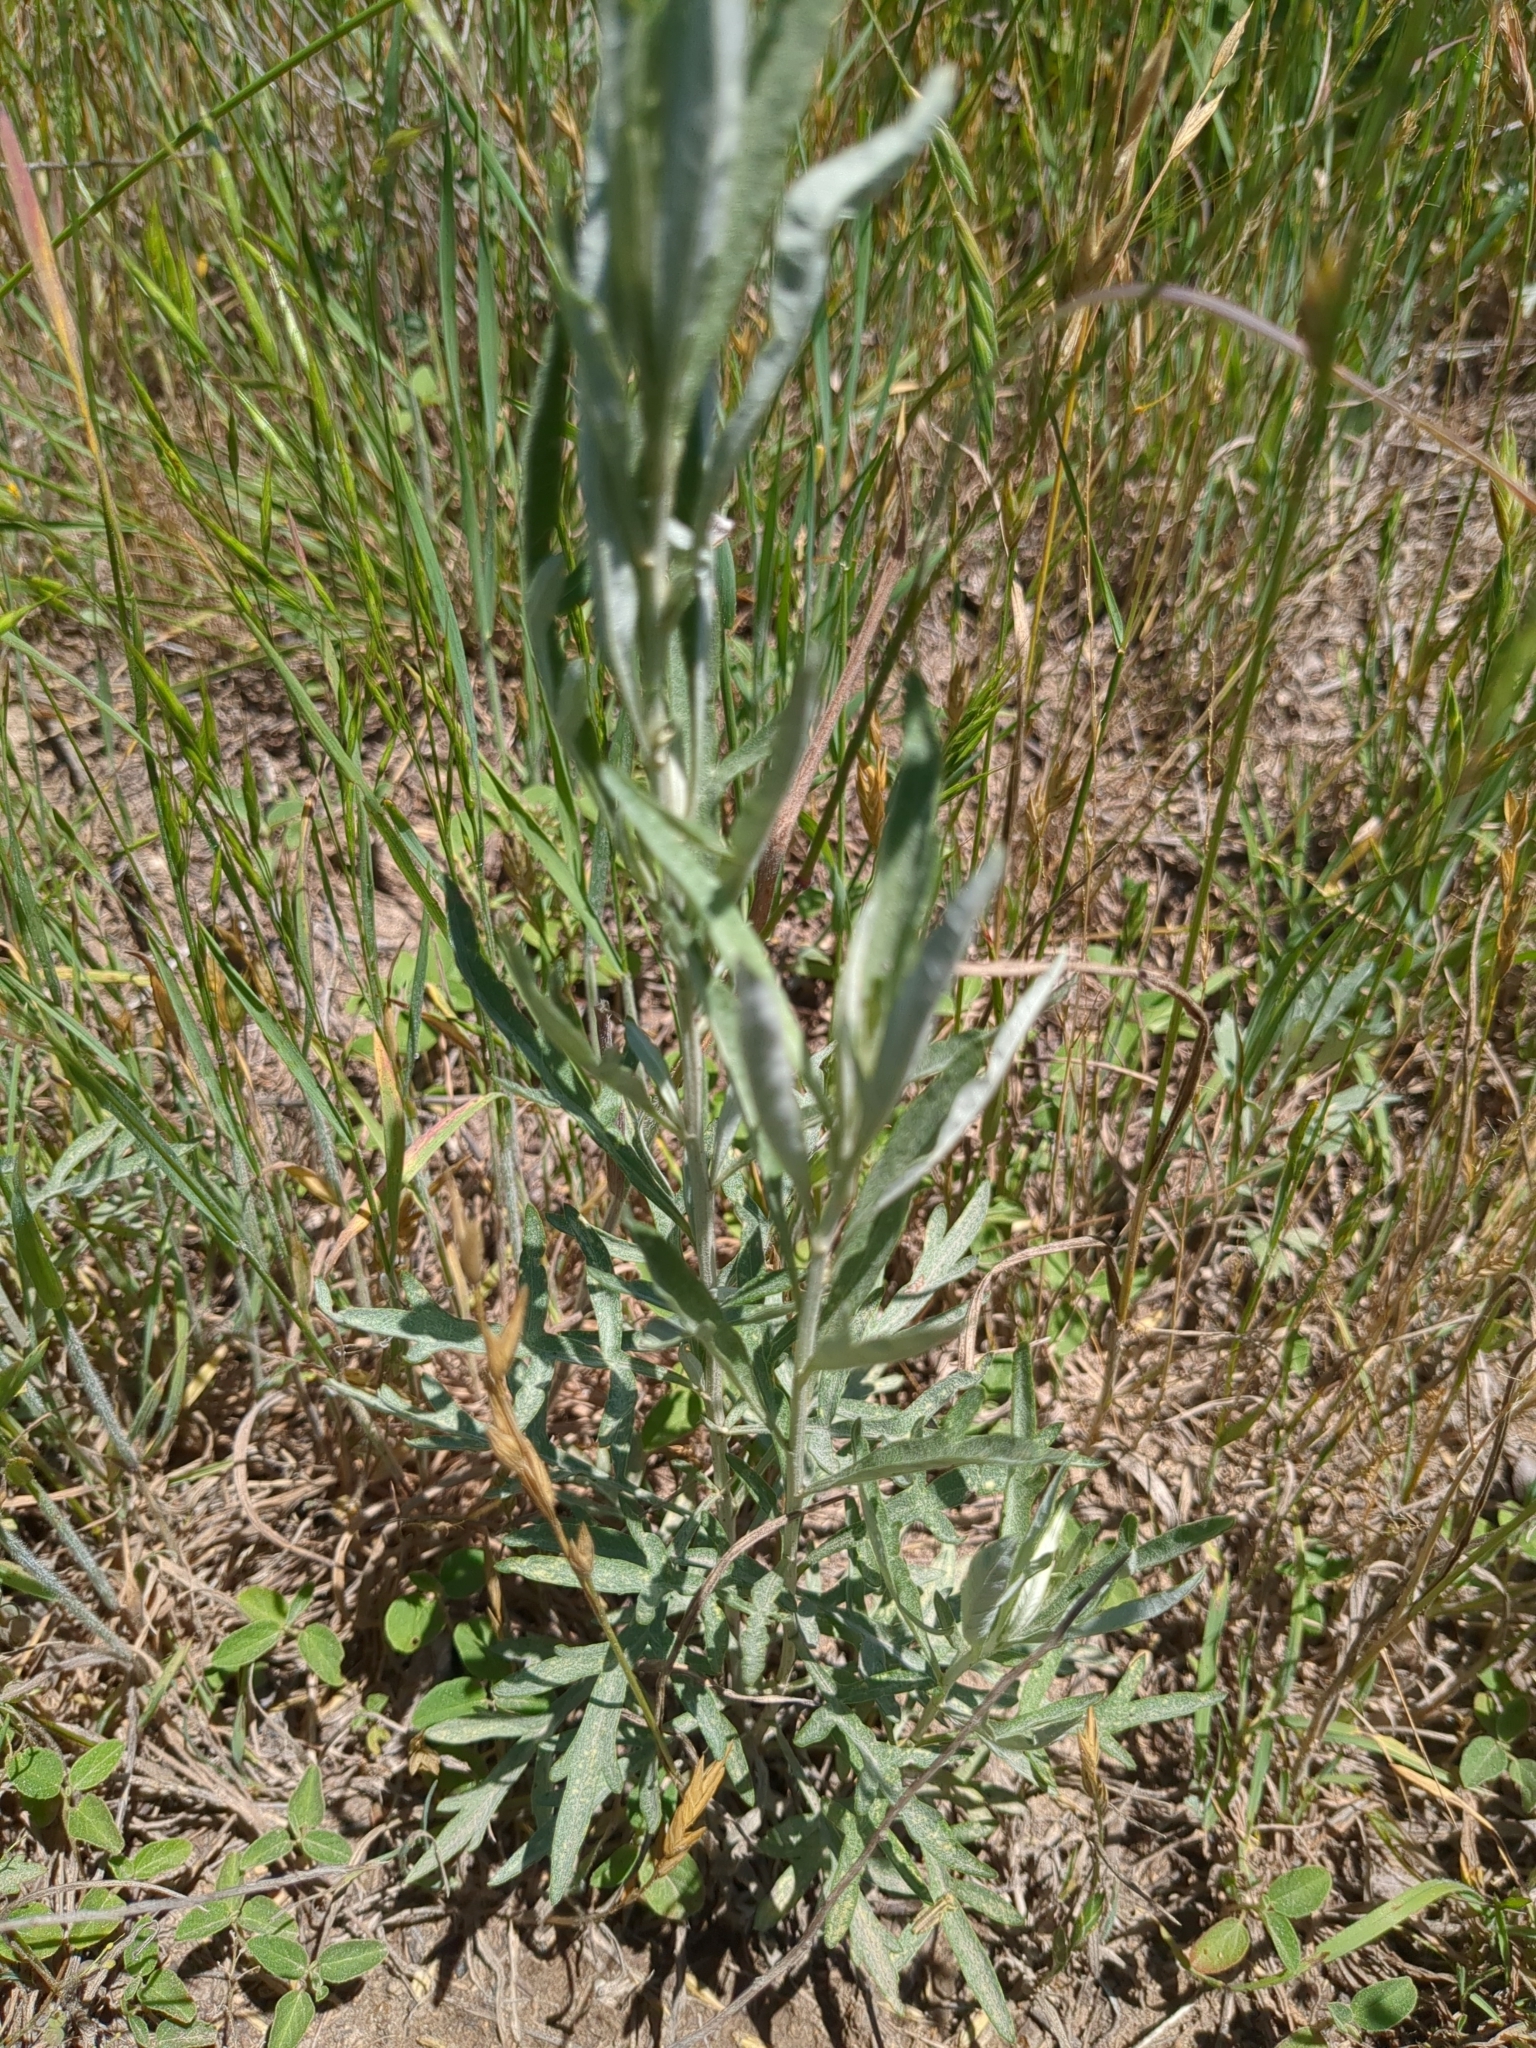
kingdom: Plantae
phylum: Tracheophyta
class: Magnoliopsida
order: Asterales
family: Asteraceae
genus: Artemisia
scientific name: Artemisia ludoviciana
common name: Western mugwort
